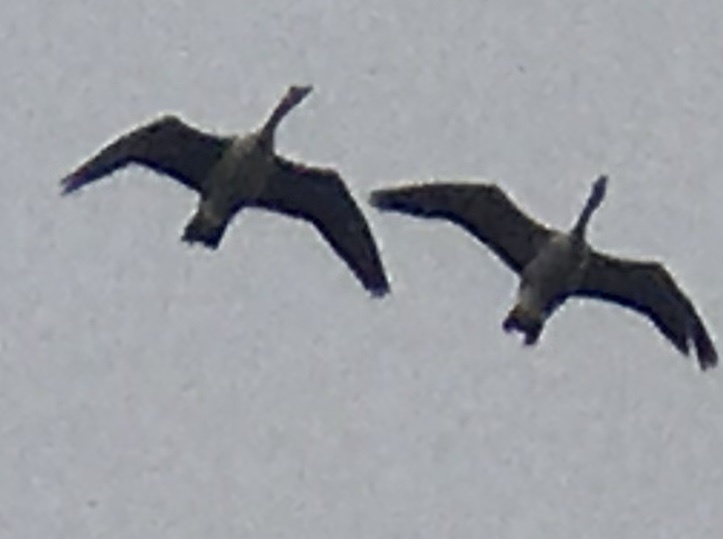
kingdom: Animalia
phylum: Chordata
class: Aves
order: Anseriformes
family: Anatidae
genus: Branta
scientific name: Branta canadensis
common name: Canada goose
